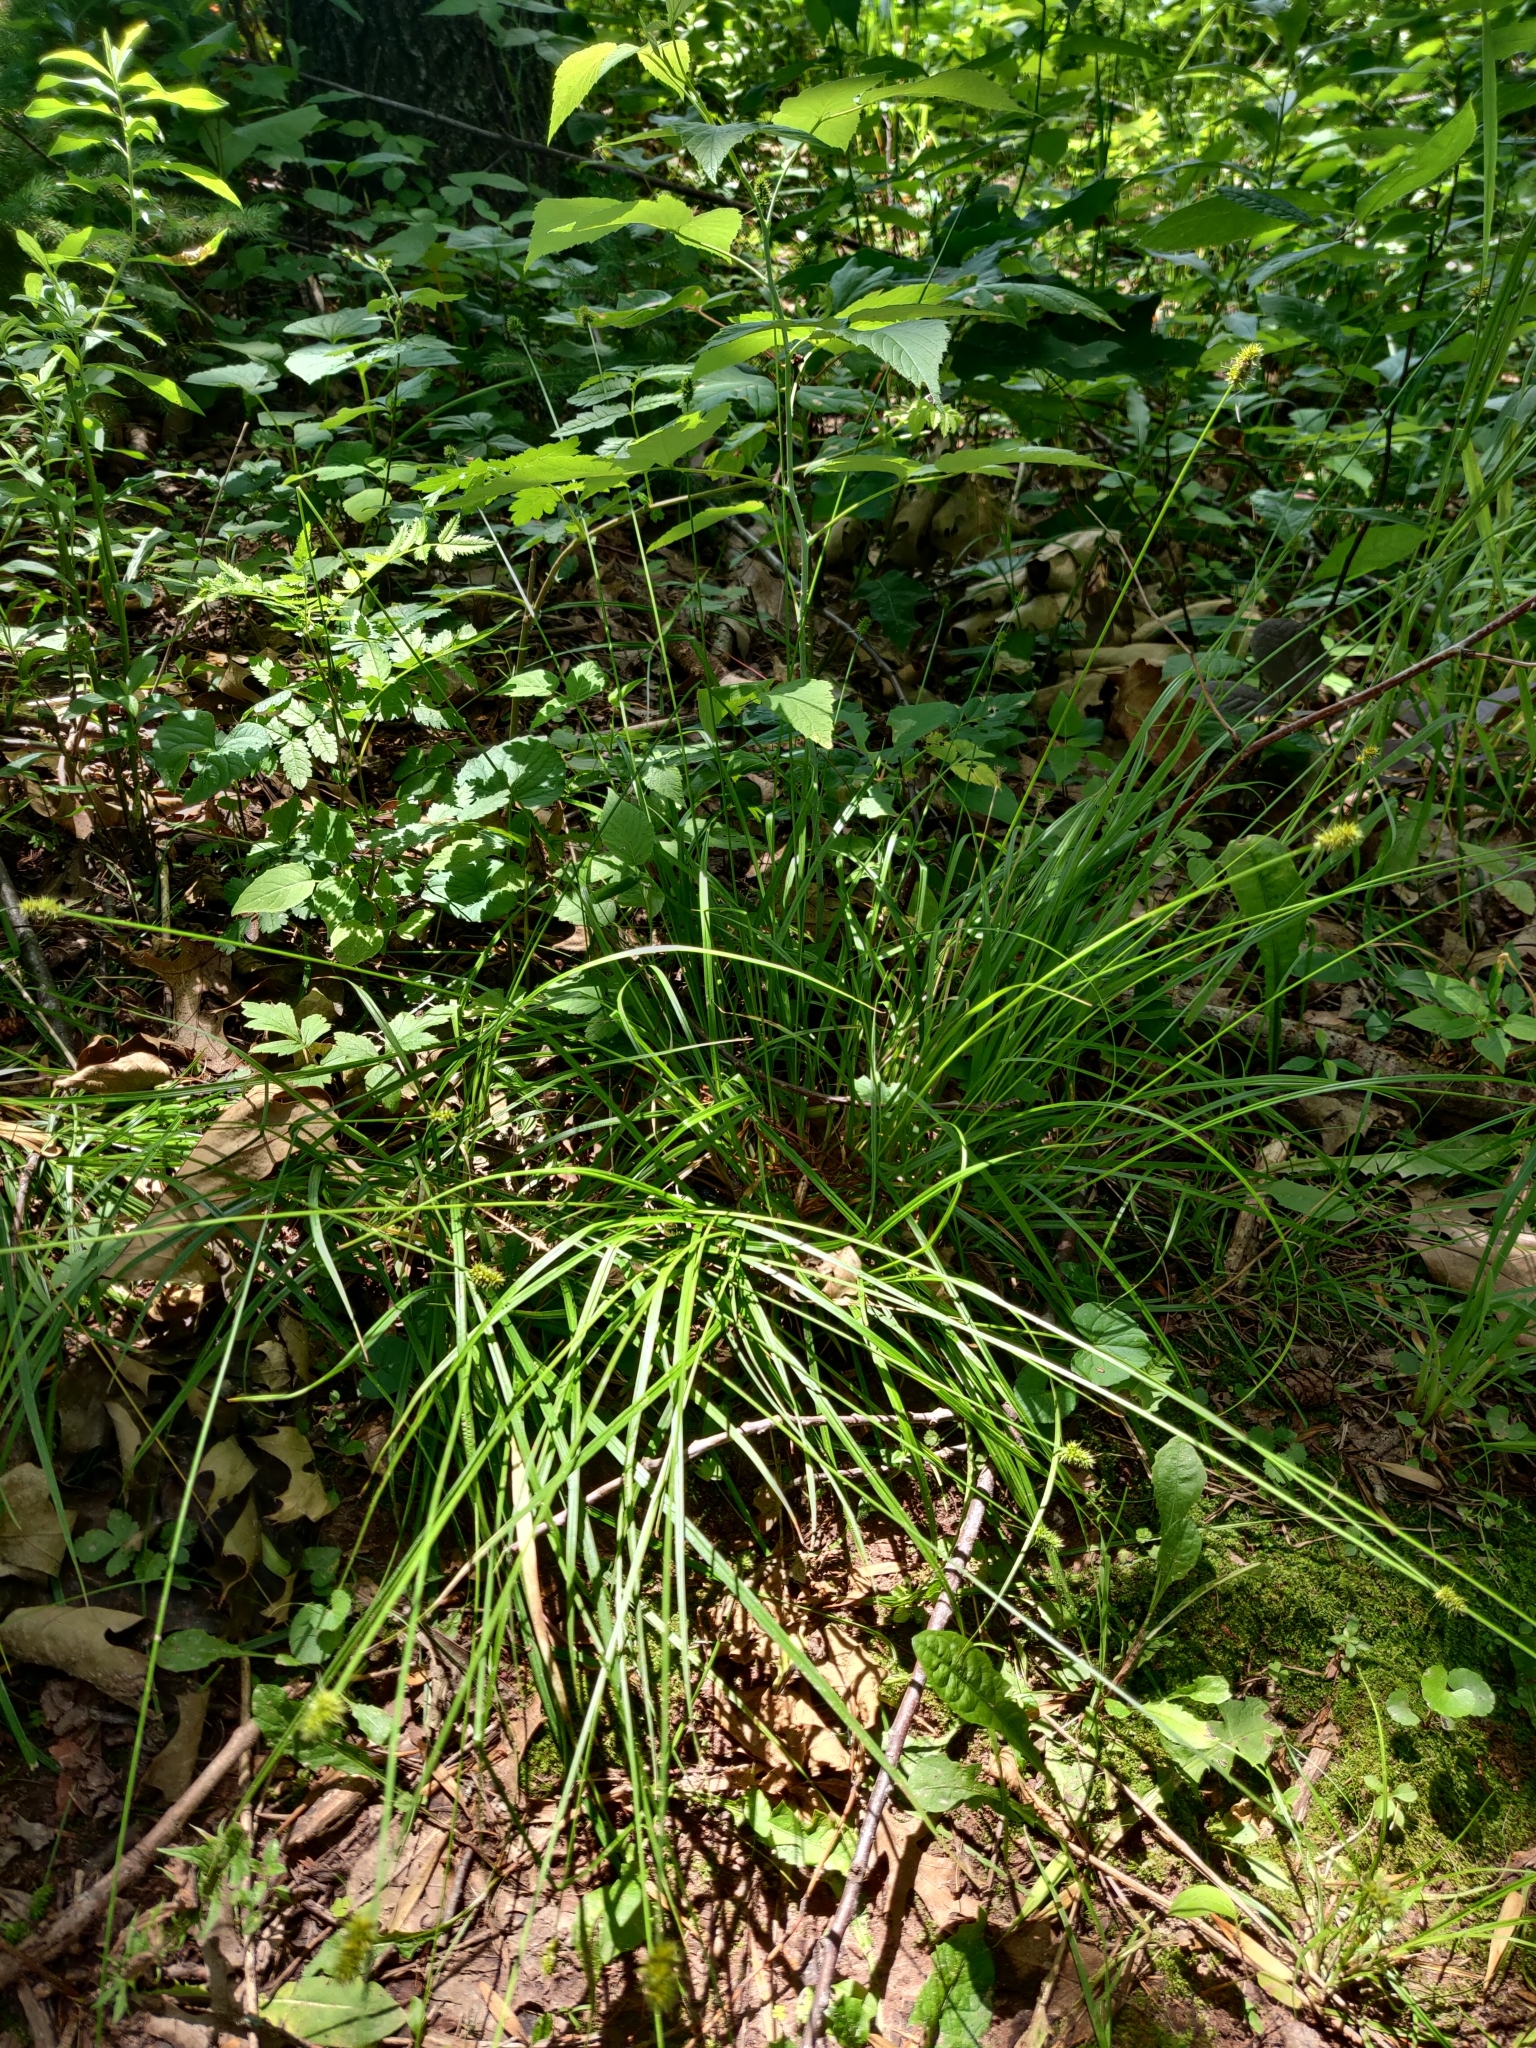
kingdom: Plantae
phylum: Tracheophyta
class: Liliopsida
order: Poales
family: Cyperaceae
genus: Carex
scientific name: Carex cephalophora
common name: Oval-headed sedge
